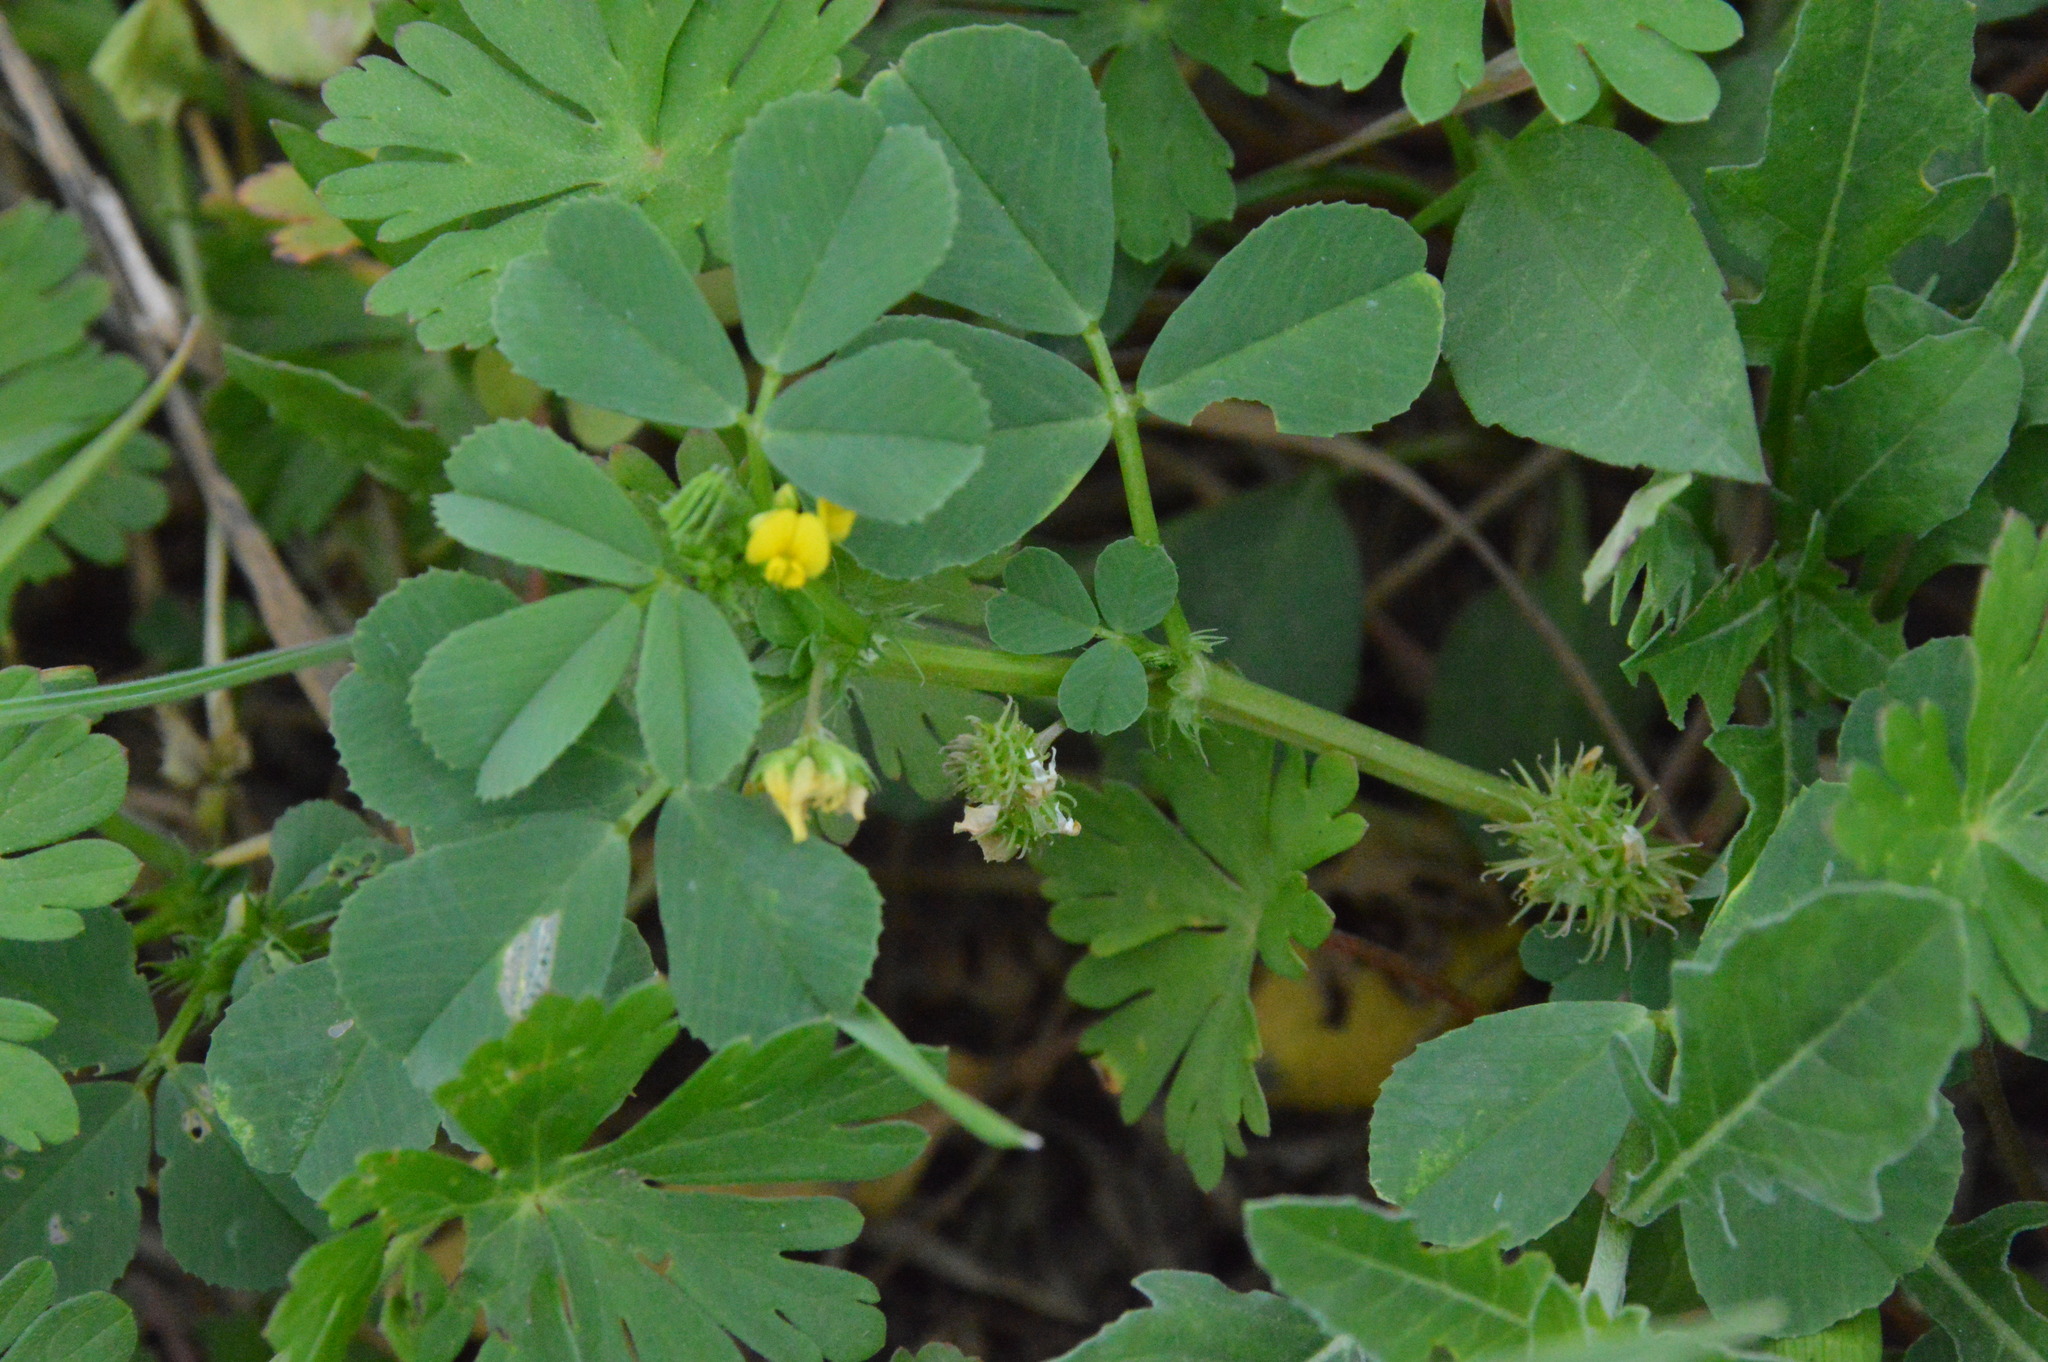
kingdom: Plantae
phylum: Tracheophyta
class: Magnoliopsida
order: Fabales
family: Fabaceae
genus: Medicago
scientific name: Medicago polymorpha
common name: Burclover
